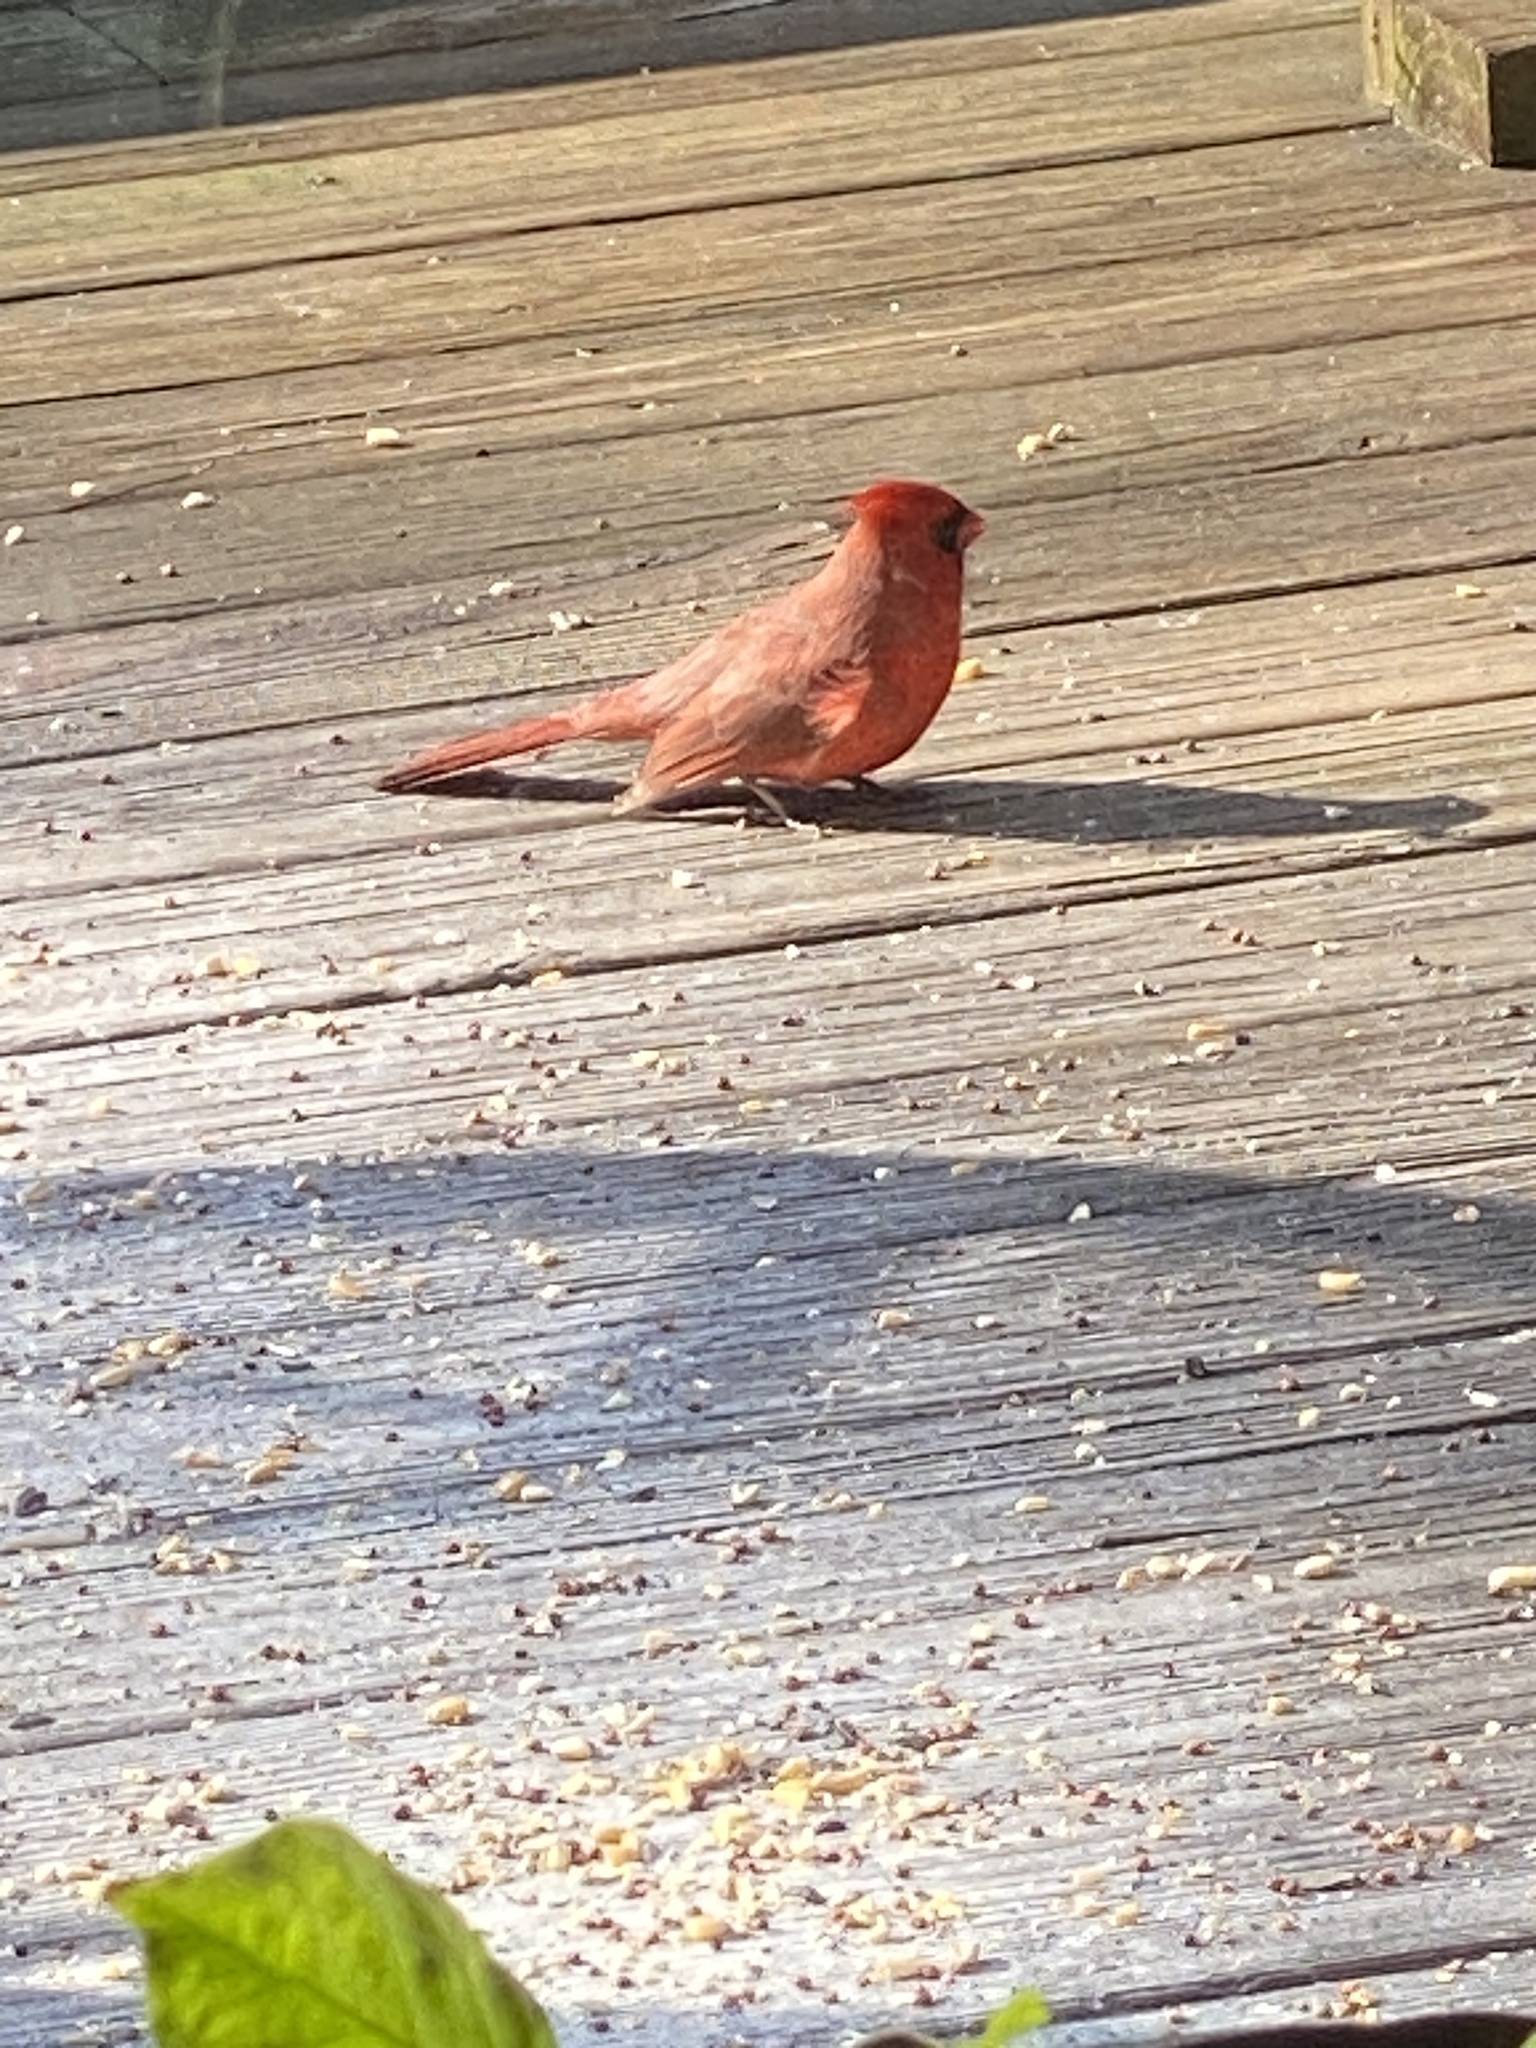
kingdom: Animalia
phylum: Chordata
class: Aves
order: Passeriformes
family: Cardinalidae
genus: Cardinalis
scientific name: Cardinalis cardinalis
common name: Northern cardinal
